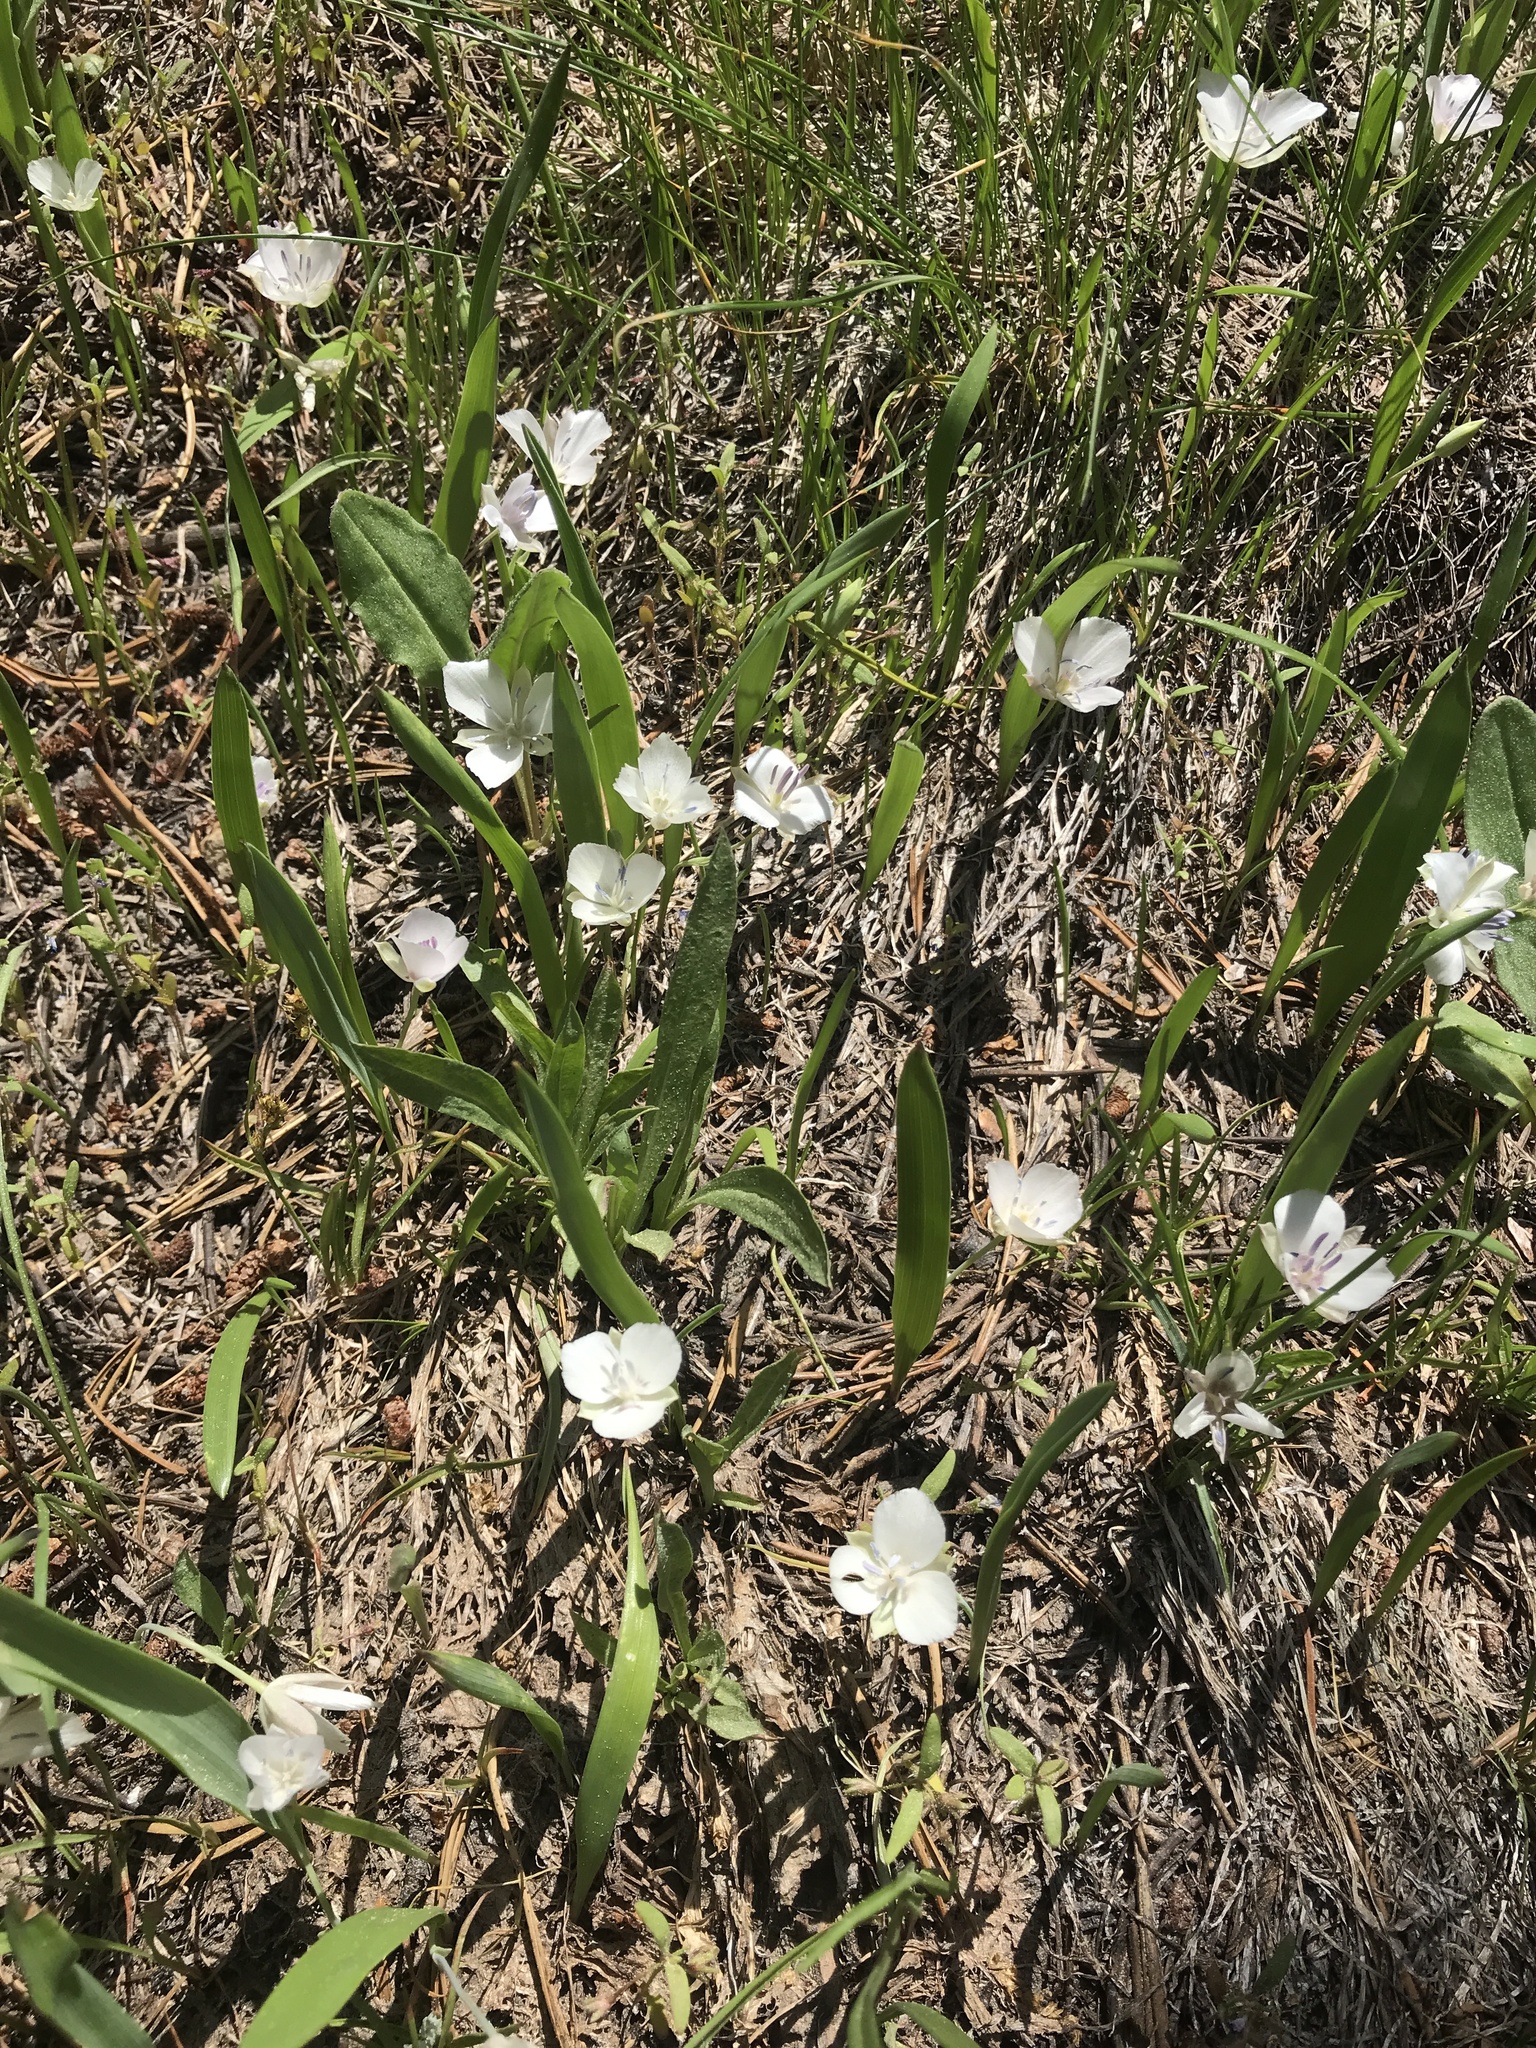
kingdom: Plantae
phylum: Tracheophyta
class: Liliopsida
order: Liliales
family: Liliaceae
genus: Calochortus
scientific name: Calochortus minimus
